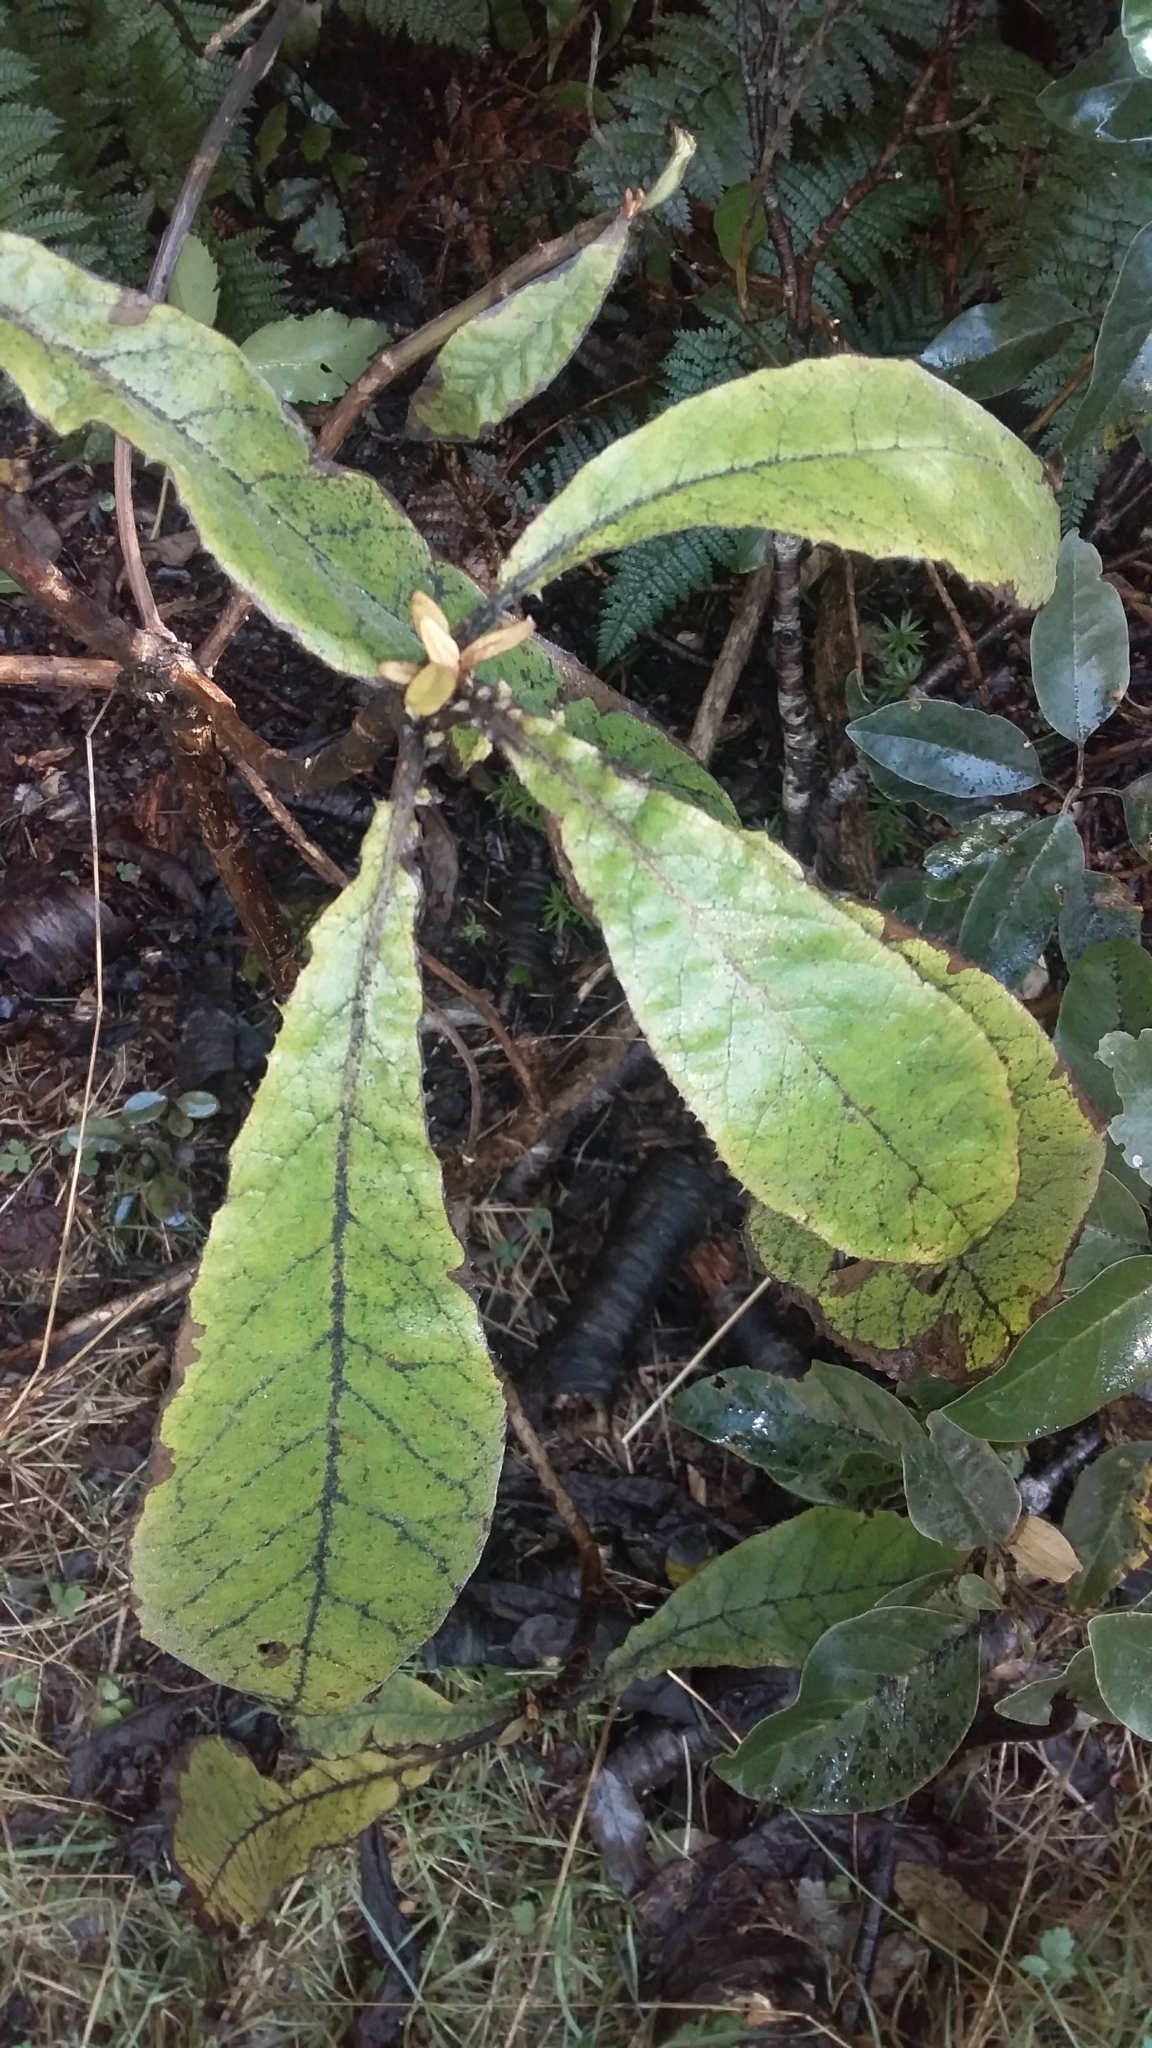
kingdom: Plantae
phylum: Tracheophyta
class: Magnoliopsida
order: Asterales
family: Asteraceae
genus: Brachyglottis
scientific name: Brachyglottis hectorii
